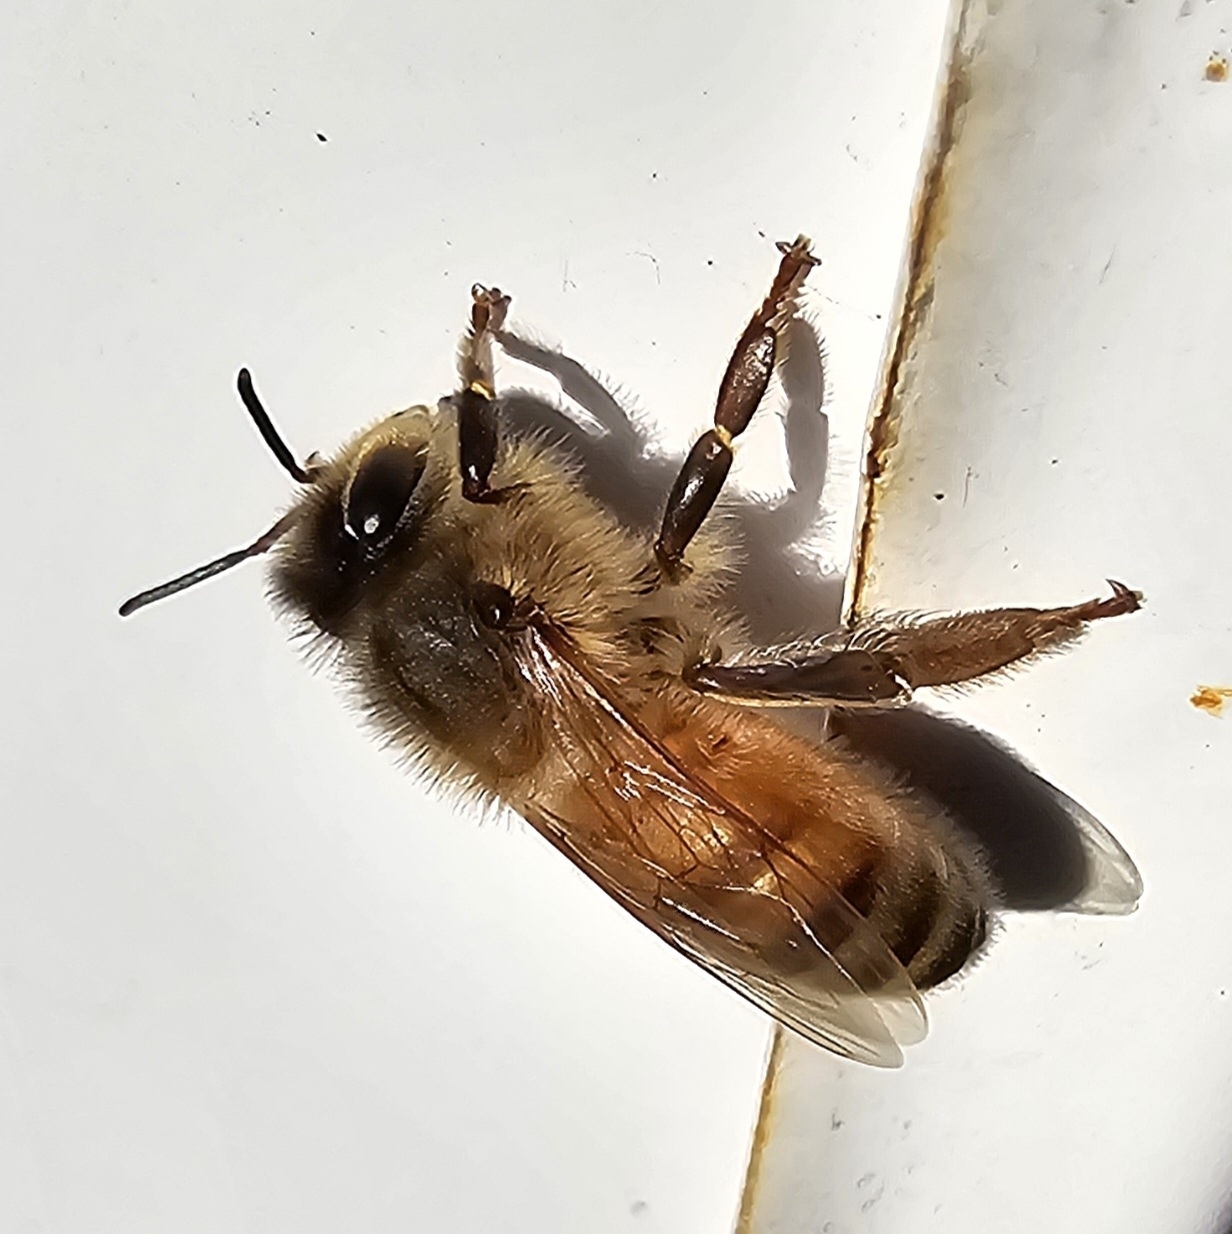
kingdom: Animalia
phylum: Arthropoda
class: Insecta
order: Hymenoptera
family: Apidae
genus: Apis
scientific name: Apis mellifera
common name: Honey bee
